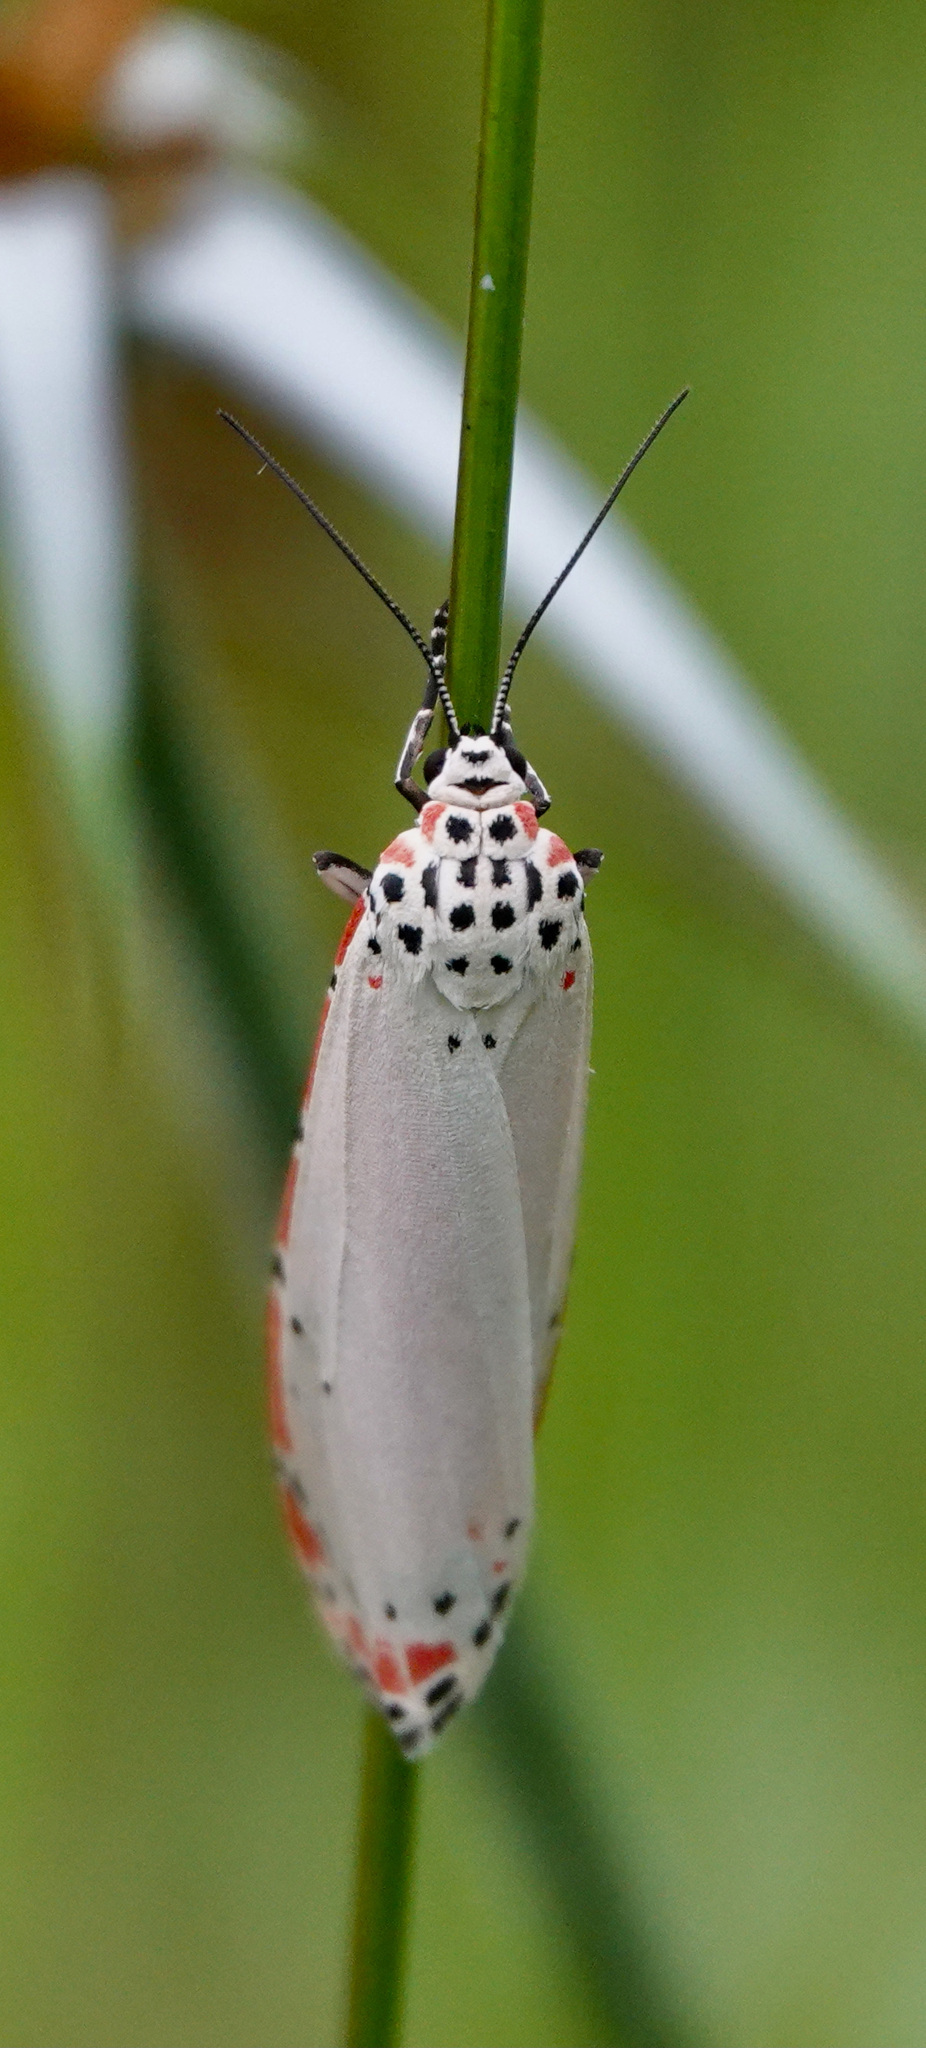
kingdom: Animalia
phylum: Arthropoda
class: Insecta
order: Lepidoptera
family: Erebidae
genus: Utetheisa
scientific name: Utetheisa ornatrix
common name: Beautiful utetheisa
